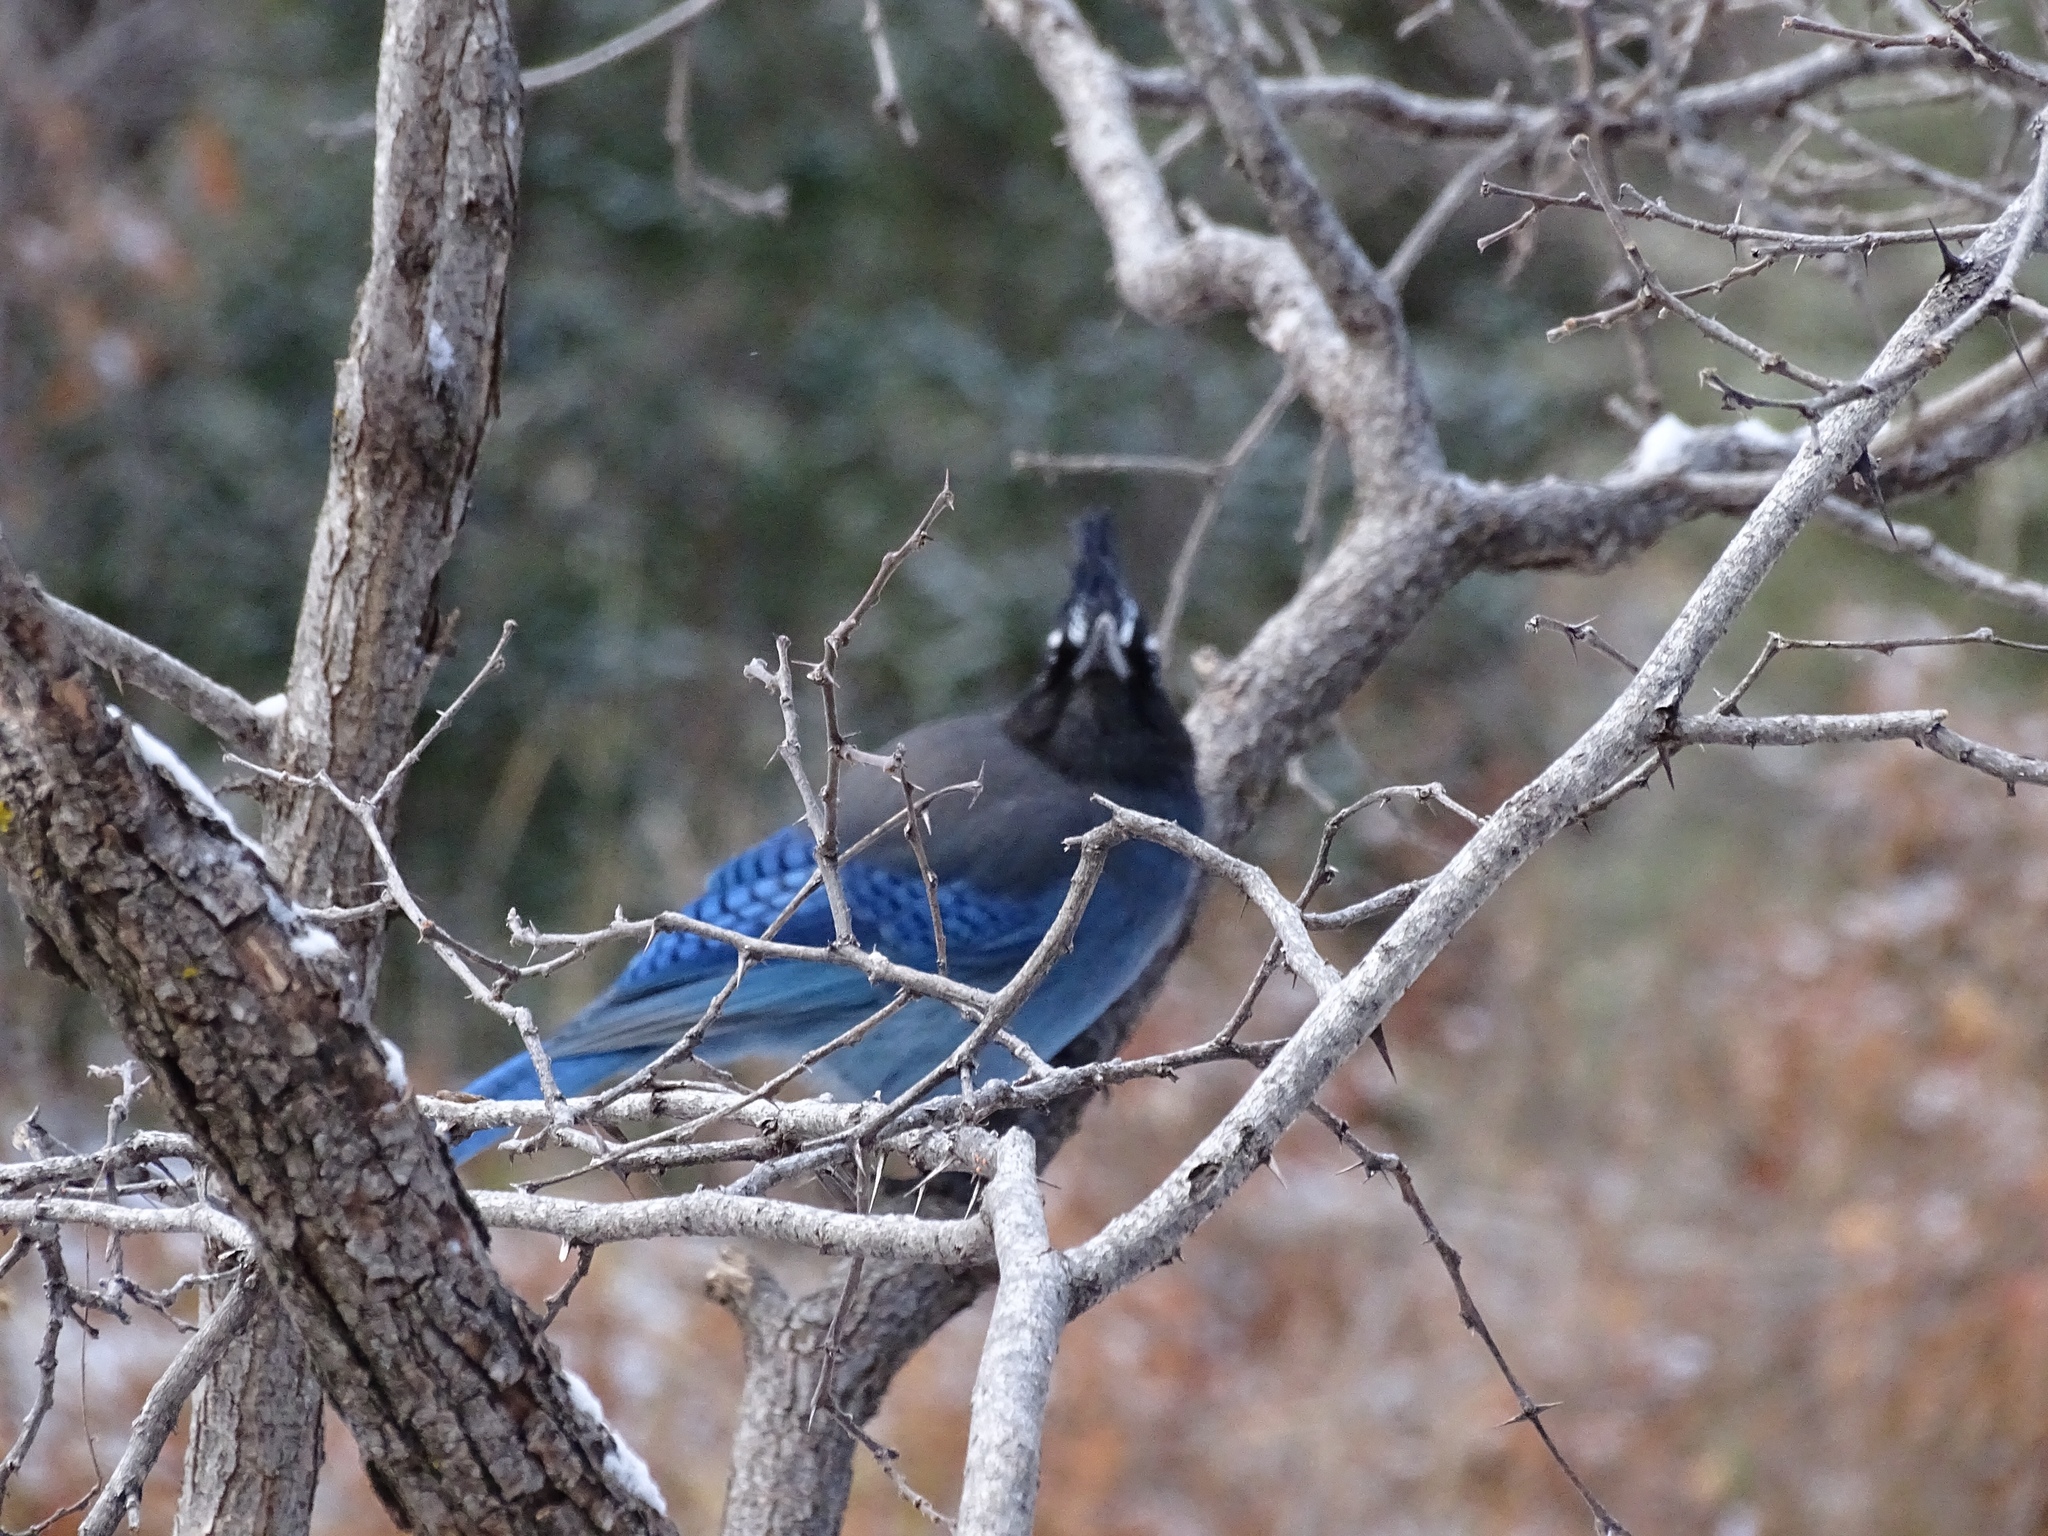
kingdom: Animalia
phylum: Chordata
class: Aves
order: Passeriformes
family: Corvidae
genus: Cyanocitta
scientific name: Cyanocitta stelleri
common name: Steller's jay
